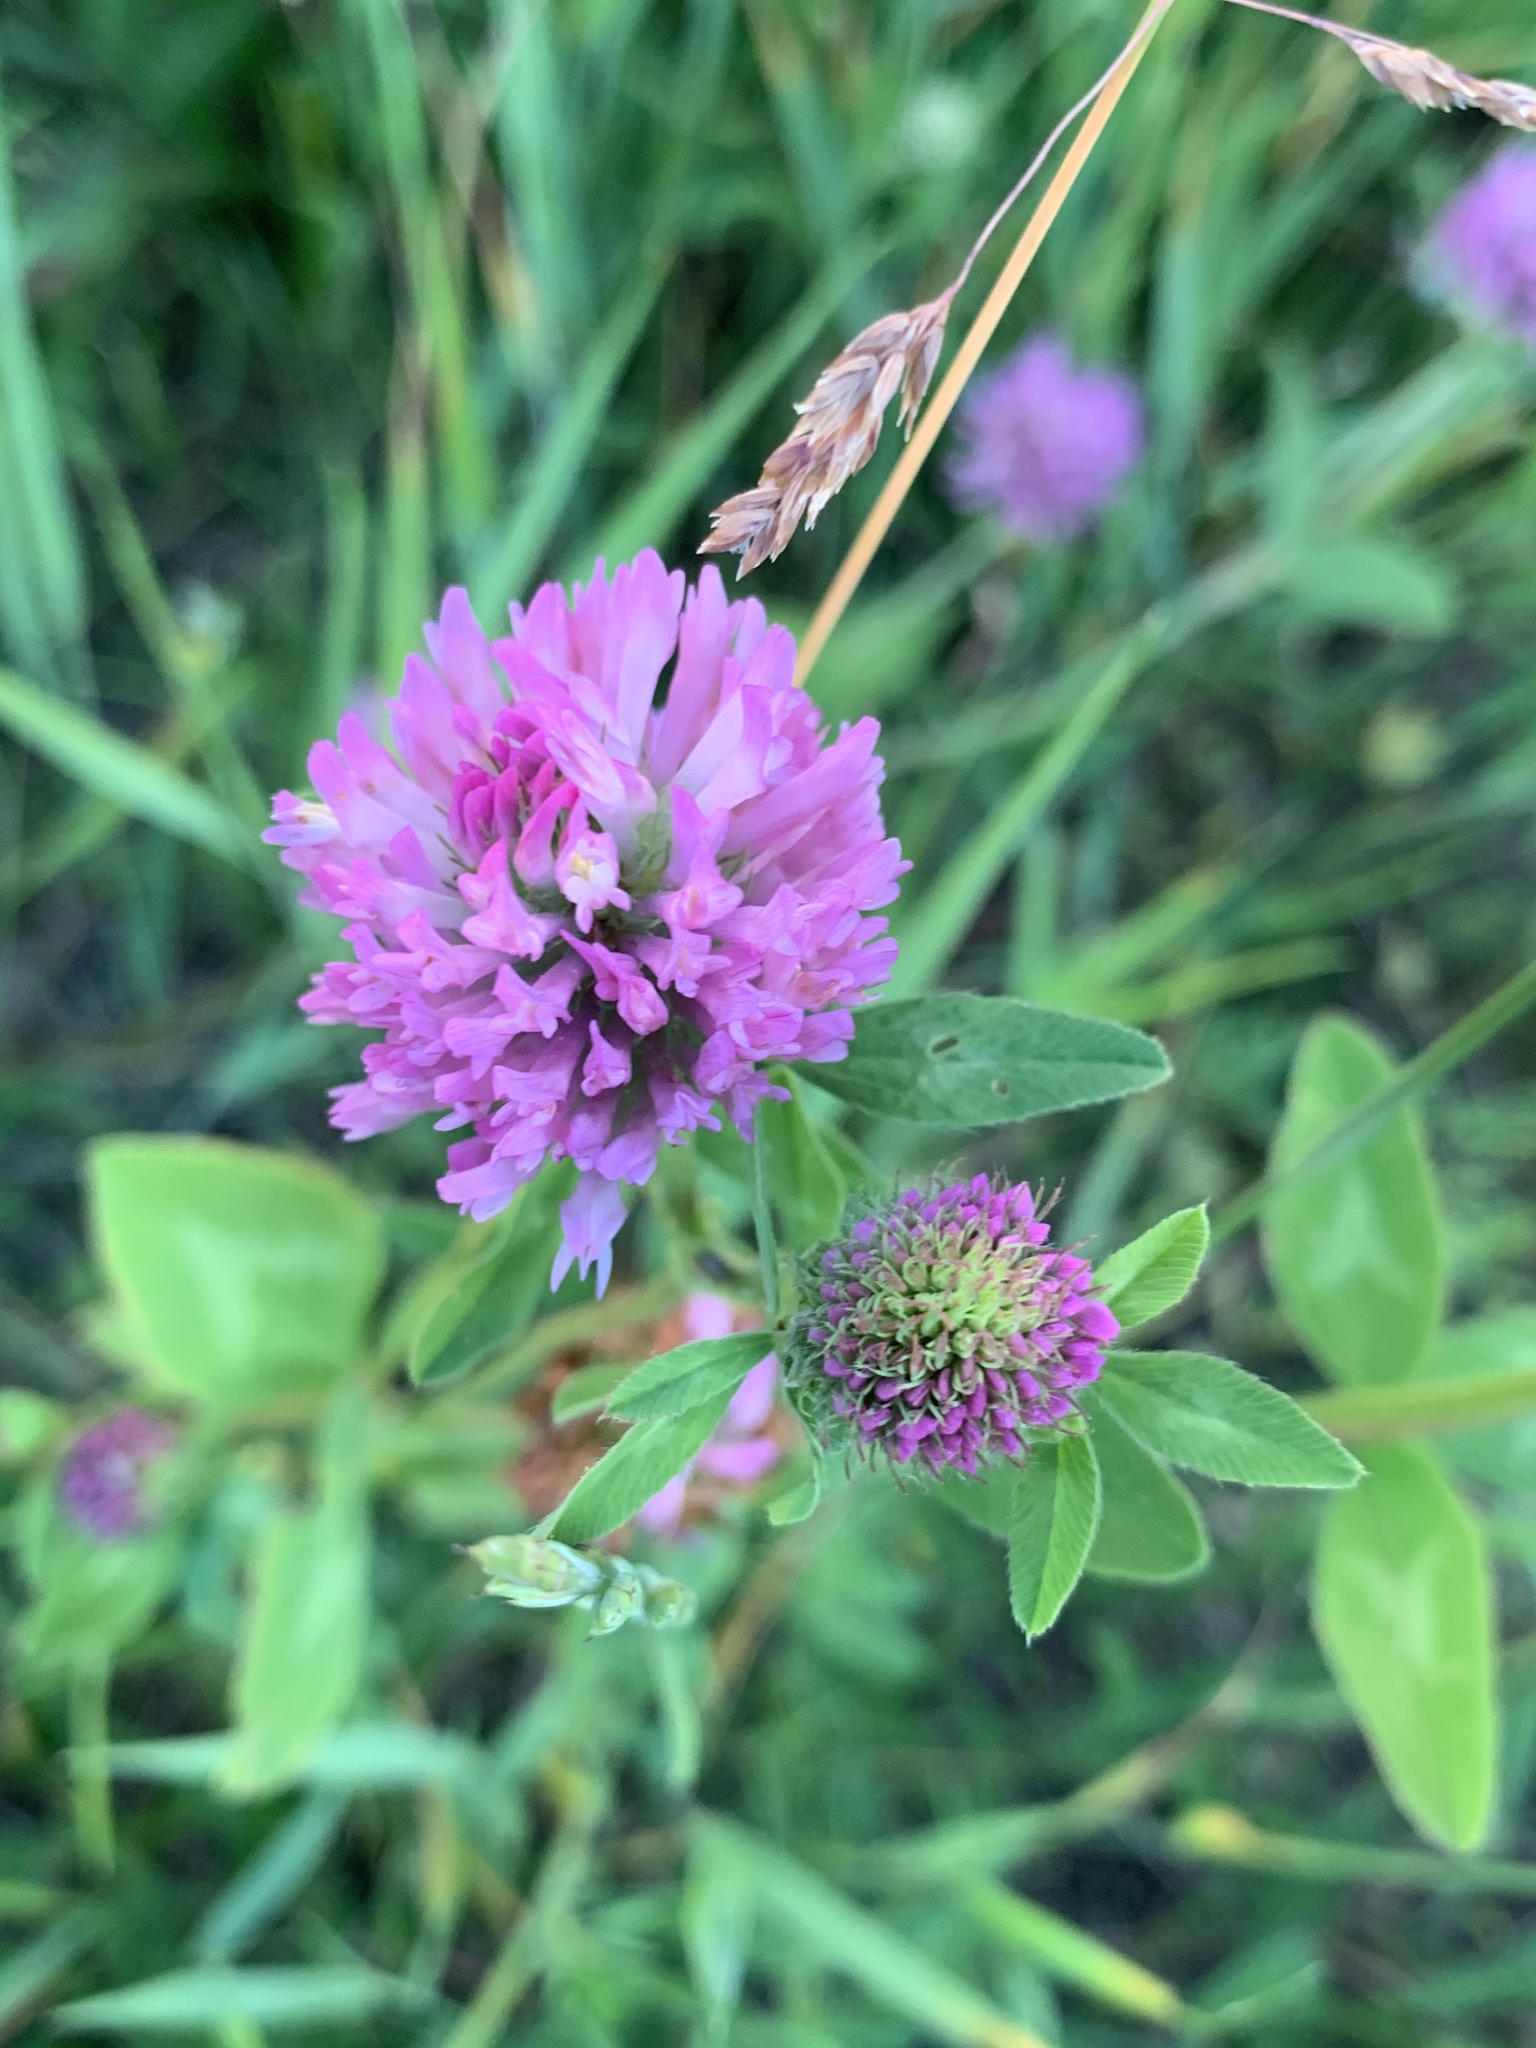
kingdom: Plantae
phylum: Tracheophyta
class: Magnoliopsida
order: Fabales
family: Fabaceae
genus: Trifolium
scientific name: Trifolium pratense
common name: Red clover
